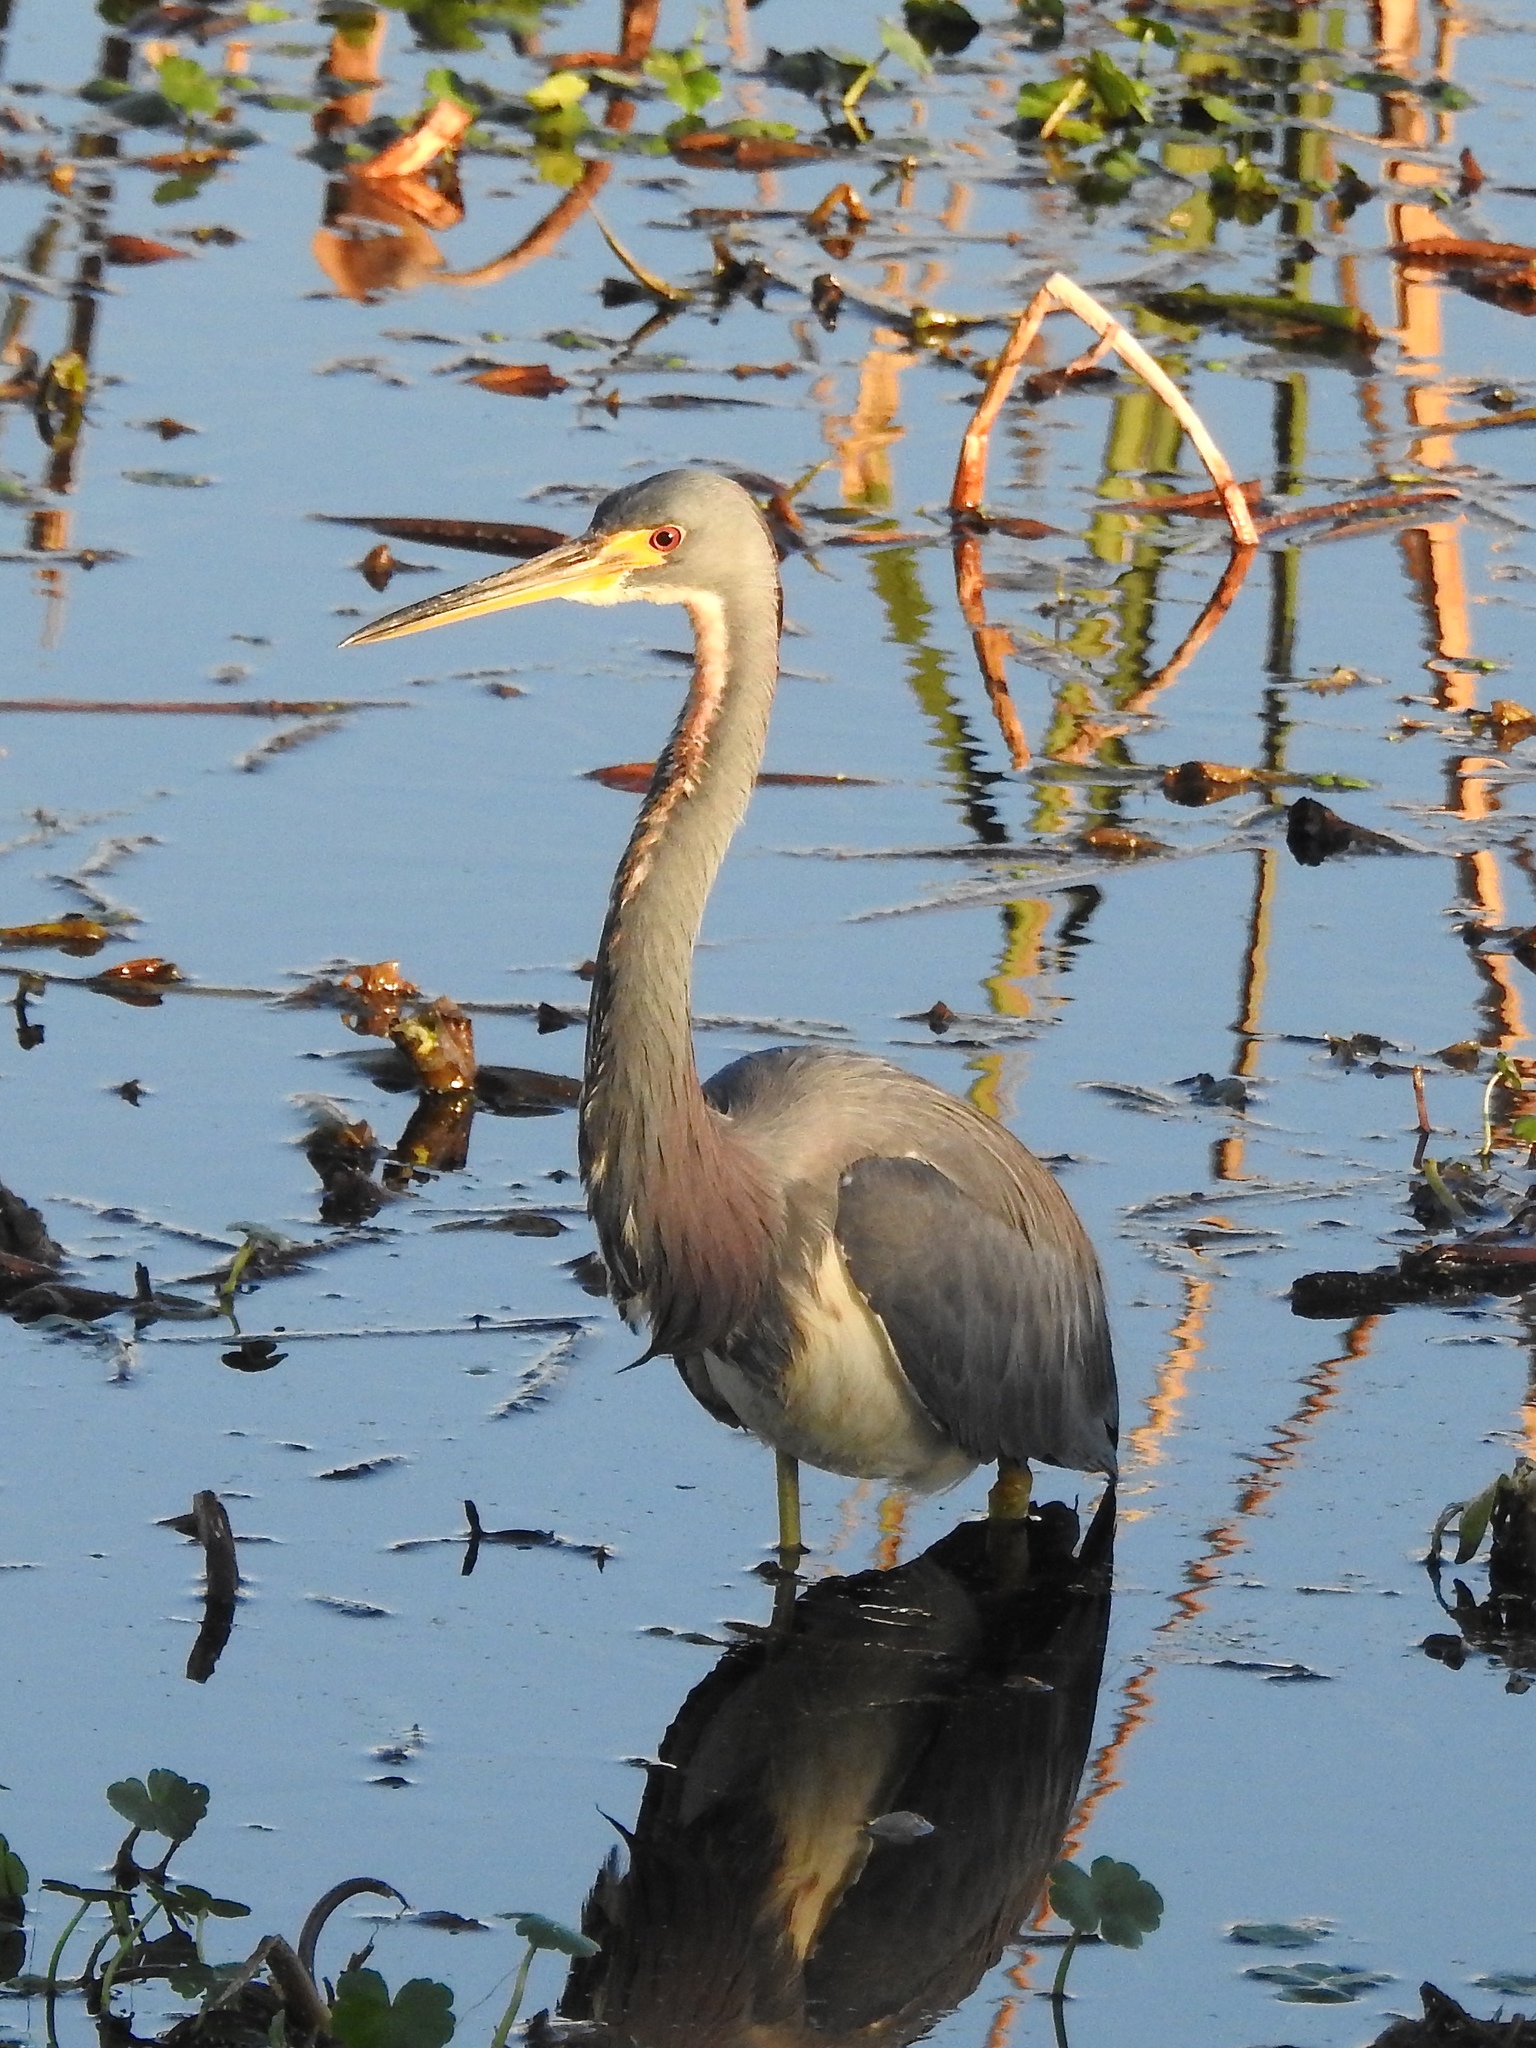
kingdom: Animalia
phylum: Chordata
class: Aves
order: Pelecaniformes
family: Ardeidae
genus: Egretta
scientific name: Egretta tricolor
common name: Tricolored heron
